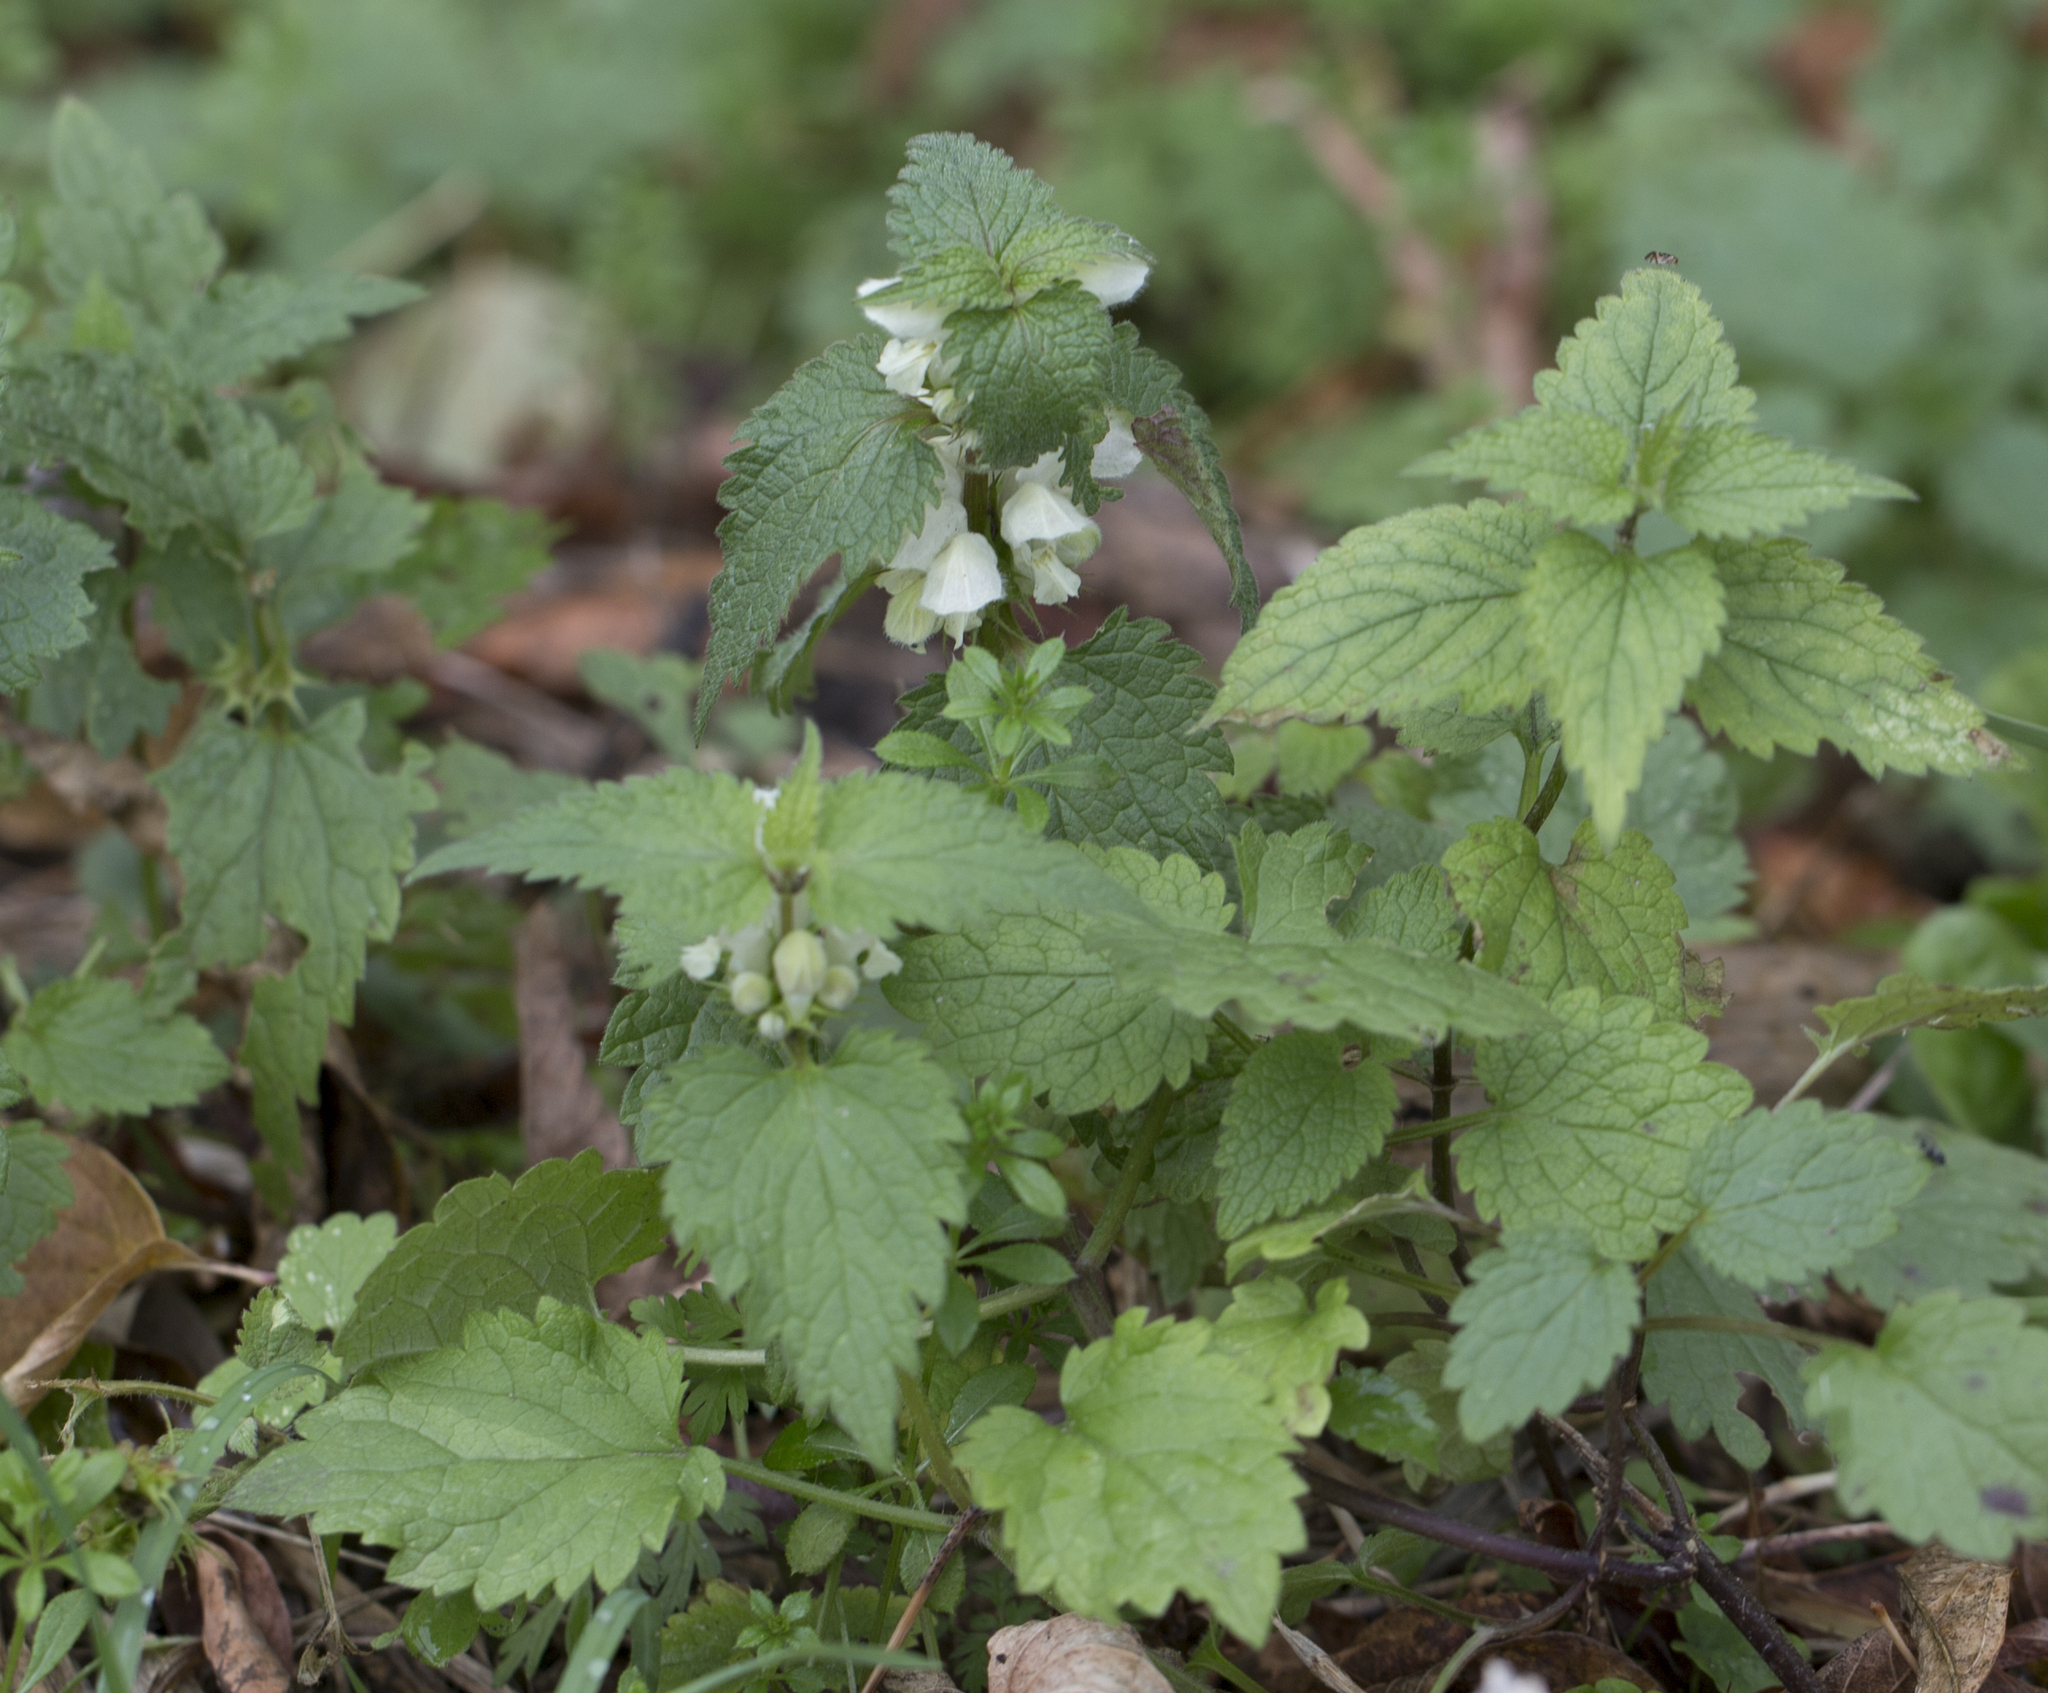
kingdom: Plantae
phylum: Tracheophyta
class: Magnoliopsida
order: Lamiales
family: Lamiaceae
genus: Lamium
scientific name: Lamium album
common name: White dead-nettle
